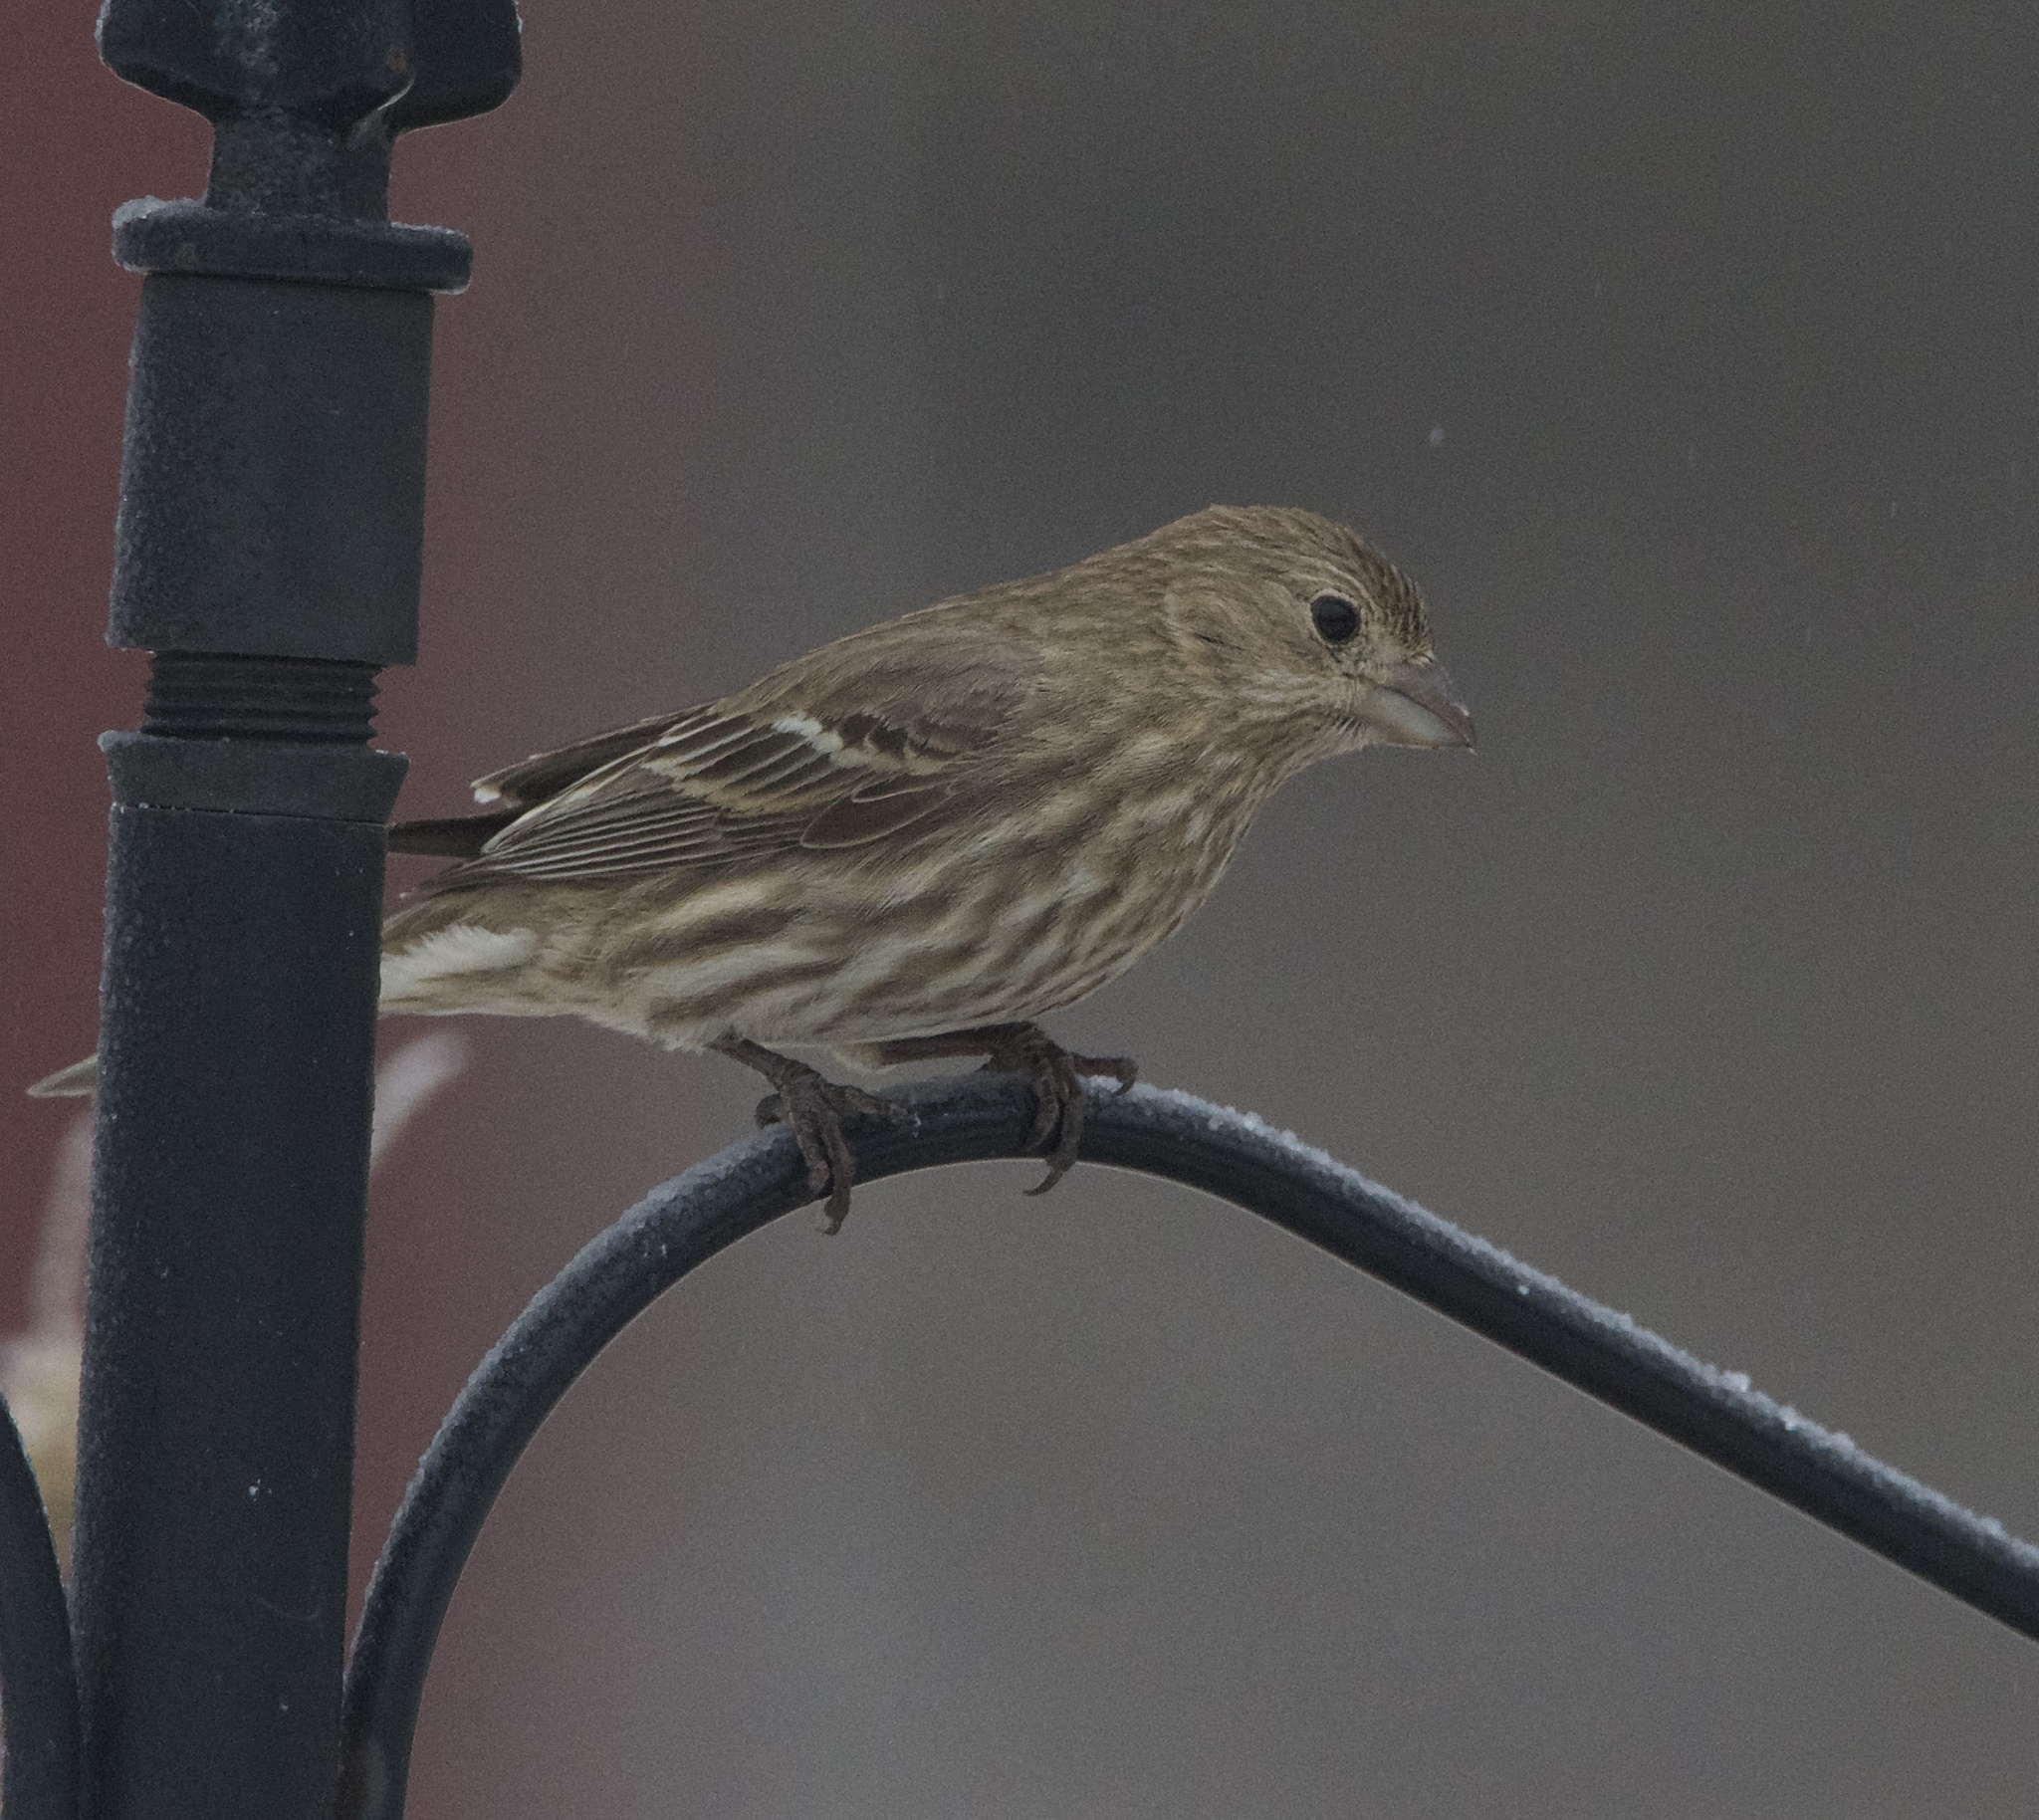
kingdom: Animalia
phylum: Chordata
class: Aves
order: Passeriformes
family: Fringillidae
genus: Haemorhous
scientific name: Haemorhous mexicanus
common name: House finch
